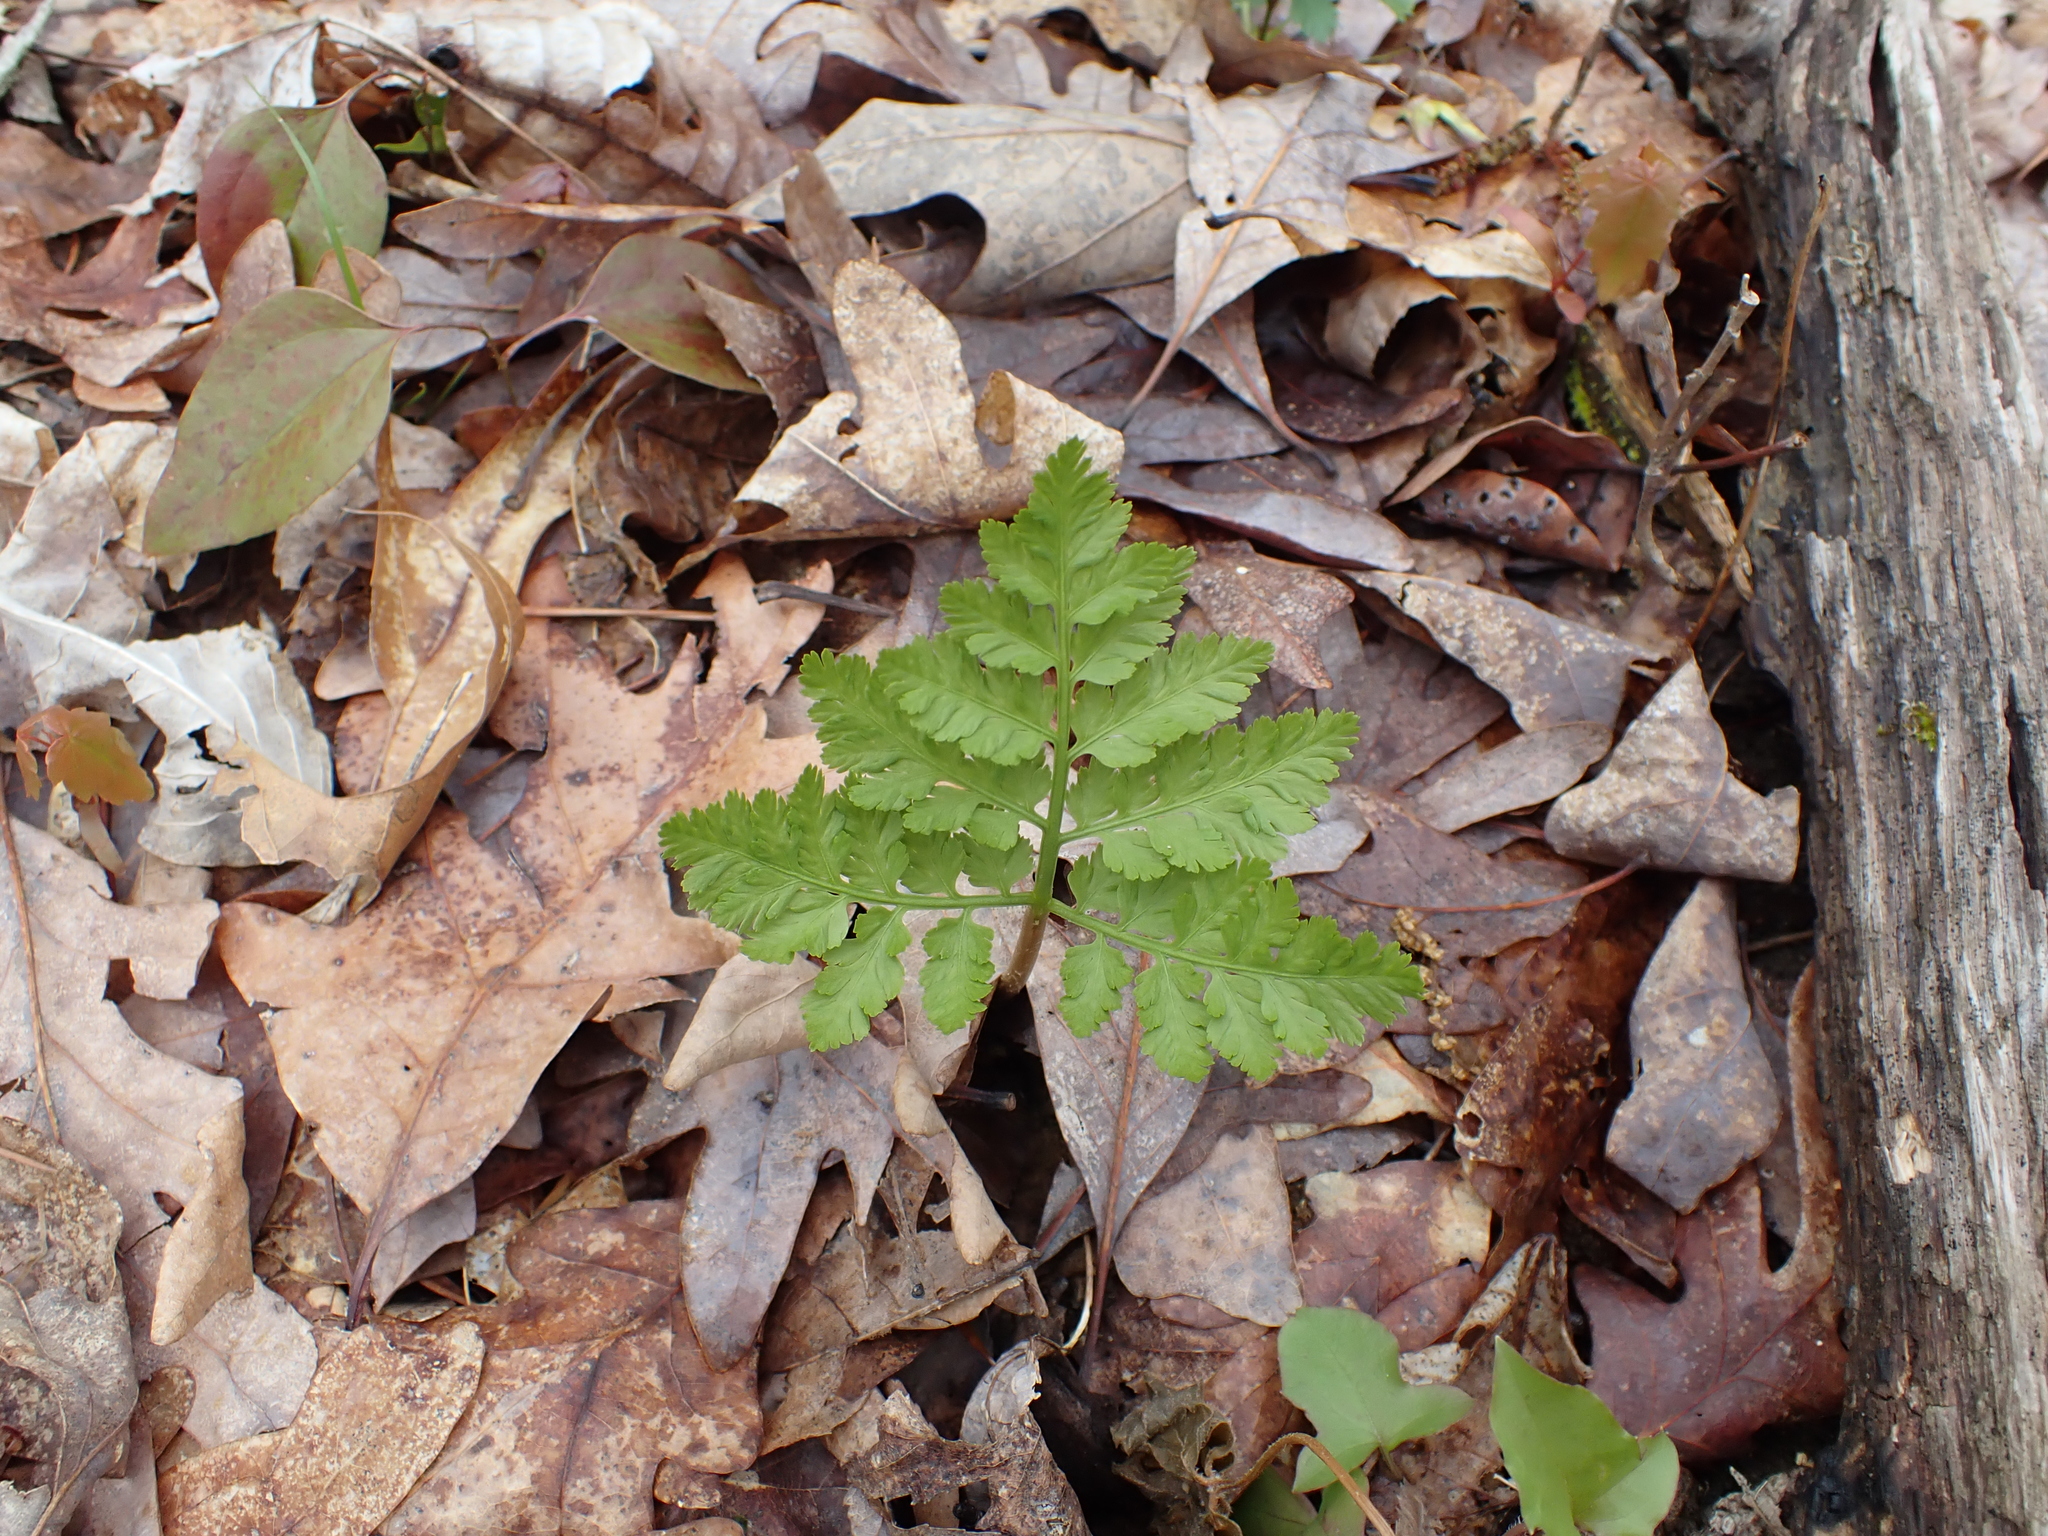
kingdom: Plantae
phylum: Tracheophyta
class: Polypodiopsida
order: Ophioglossales
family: Ophioglossaceae
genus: Botrypus
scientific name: Botrypus virginianus
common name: Common grapefern
